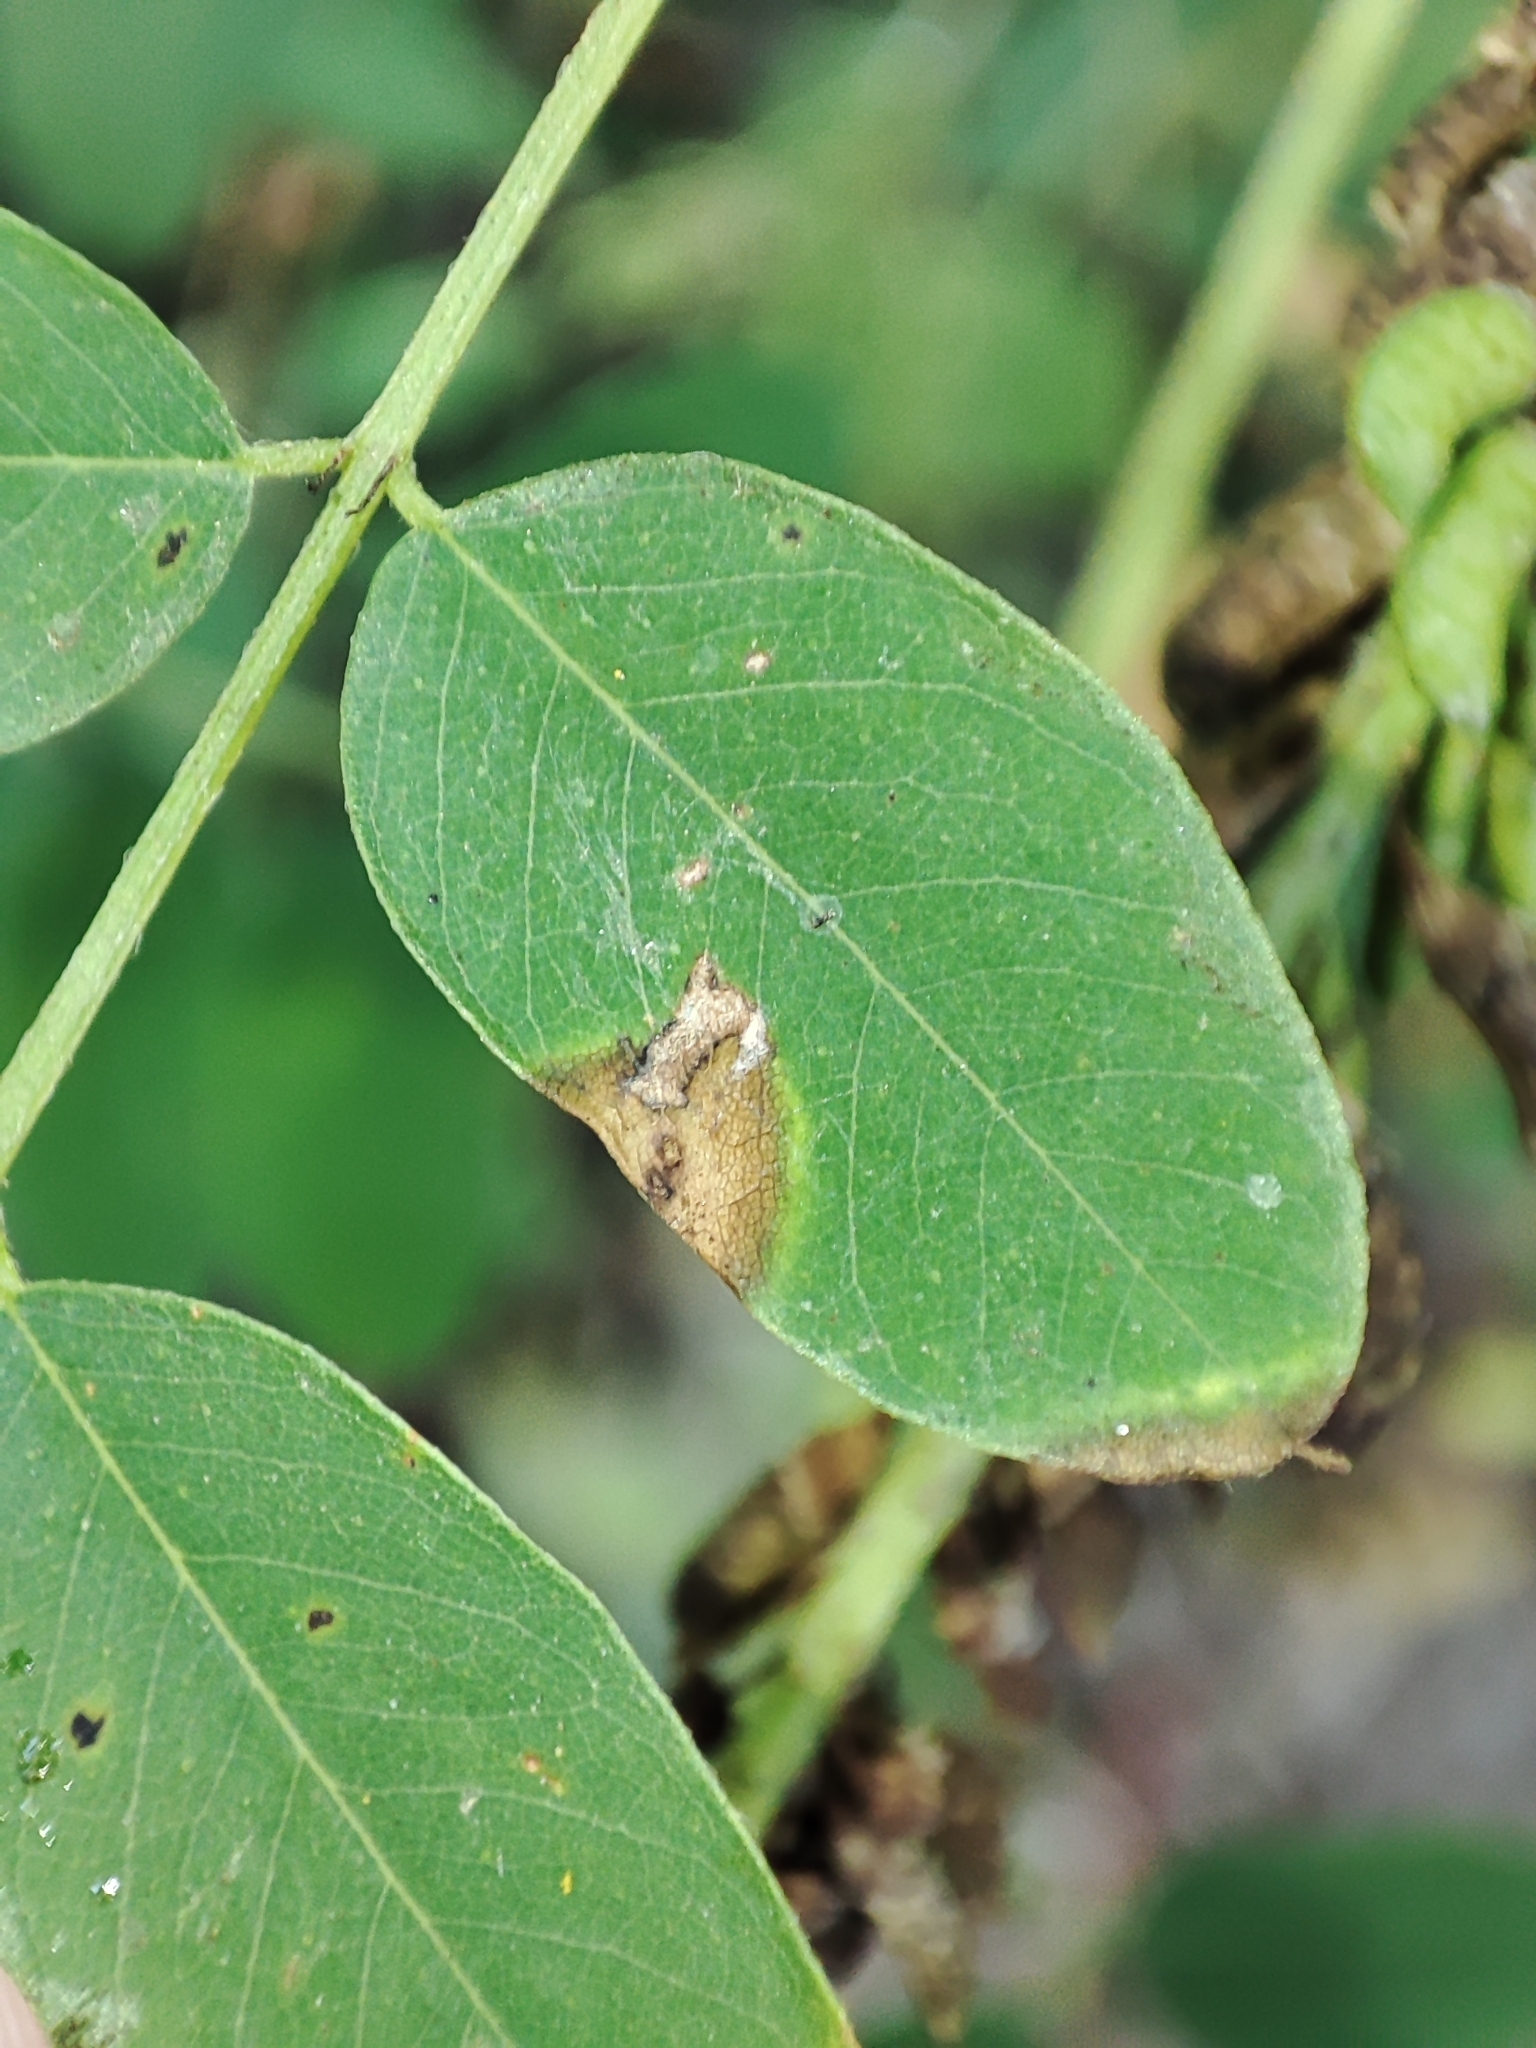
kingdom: Plantae
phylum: Tracheophyta
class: Magnoliopsida
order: Fabales
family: Fabaceae
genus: Amorpha
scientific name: Amorpha fruticosa
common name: False indigo
